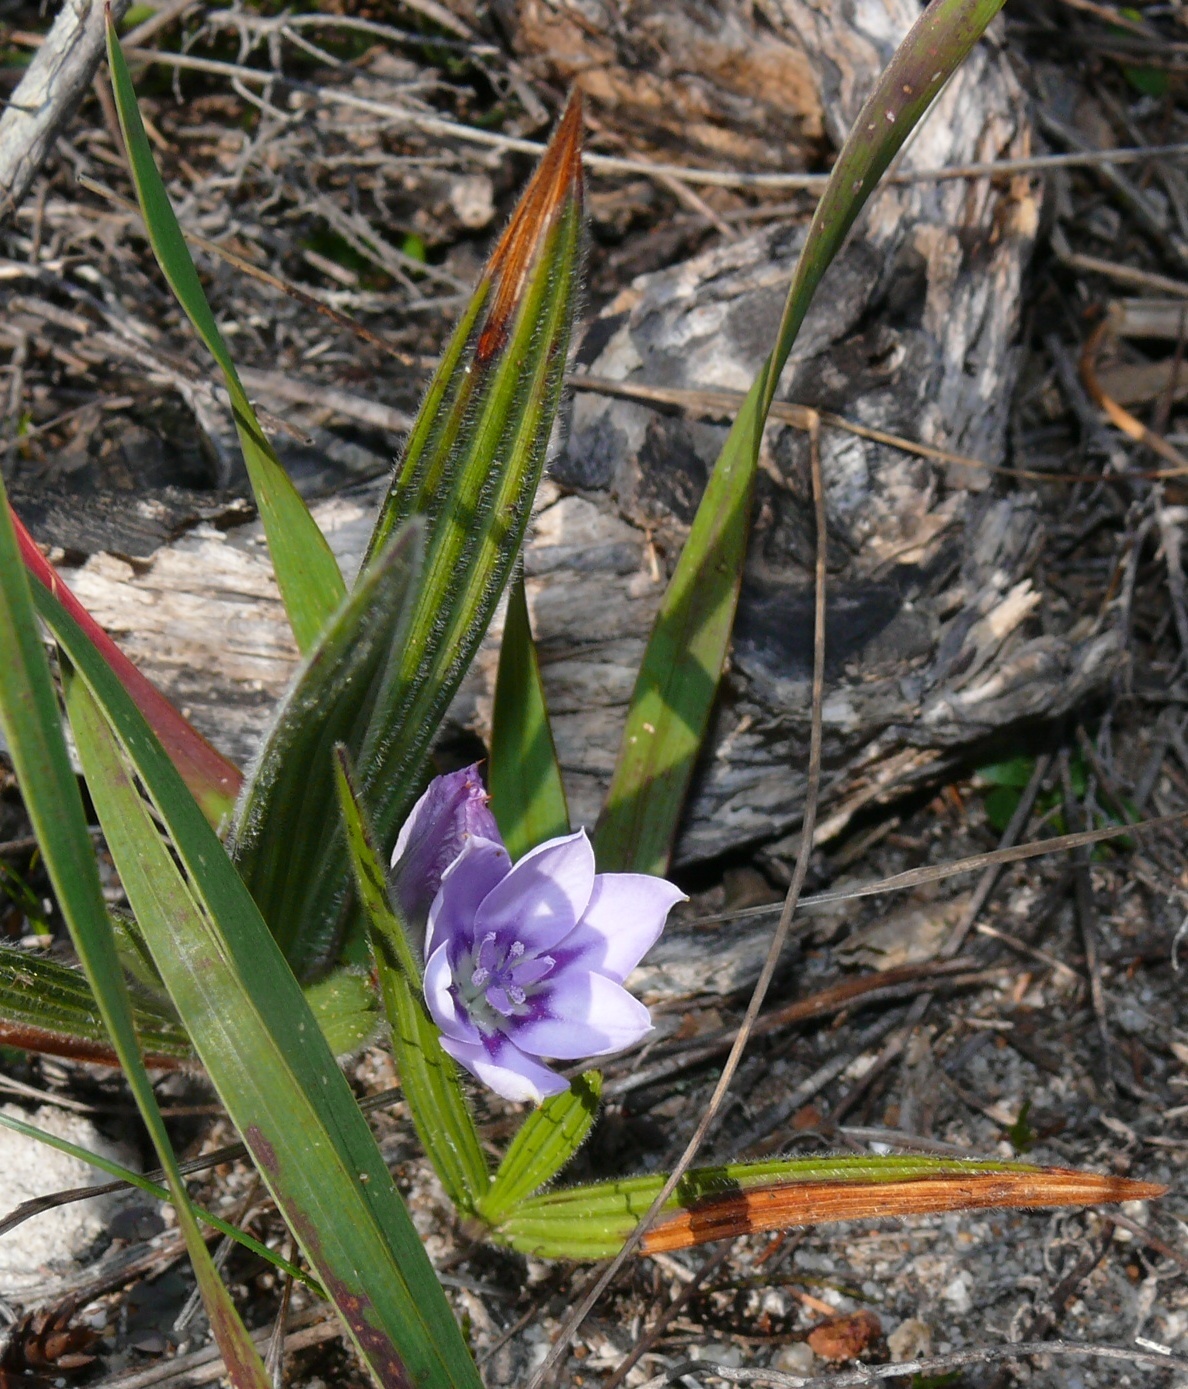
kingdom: Plantae
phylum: Tracheophyta
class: Liliopsida
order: Asparagales
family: Iridaceae
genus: Babiana
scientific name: Babiana villosula
